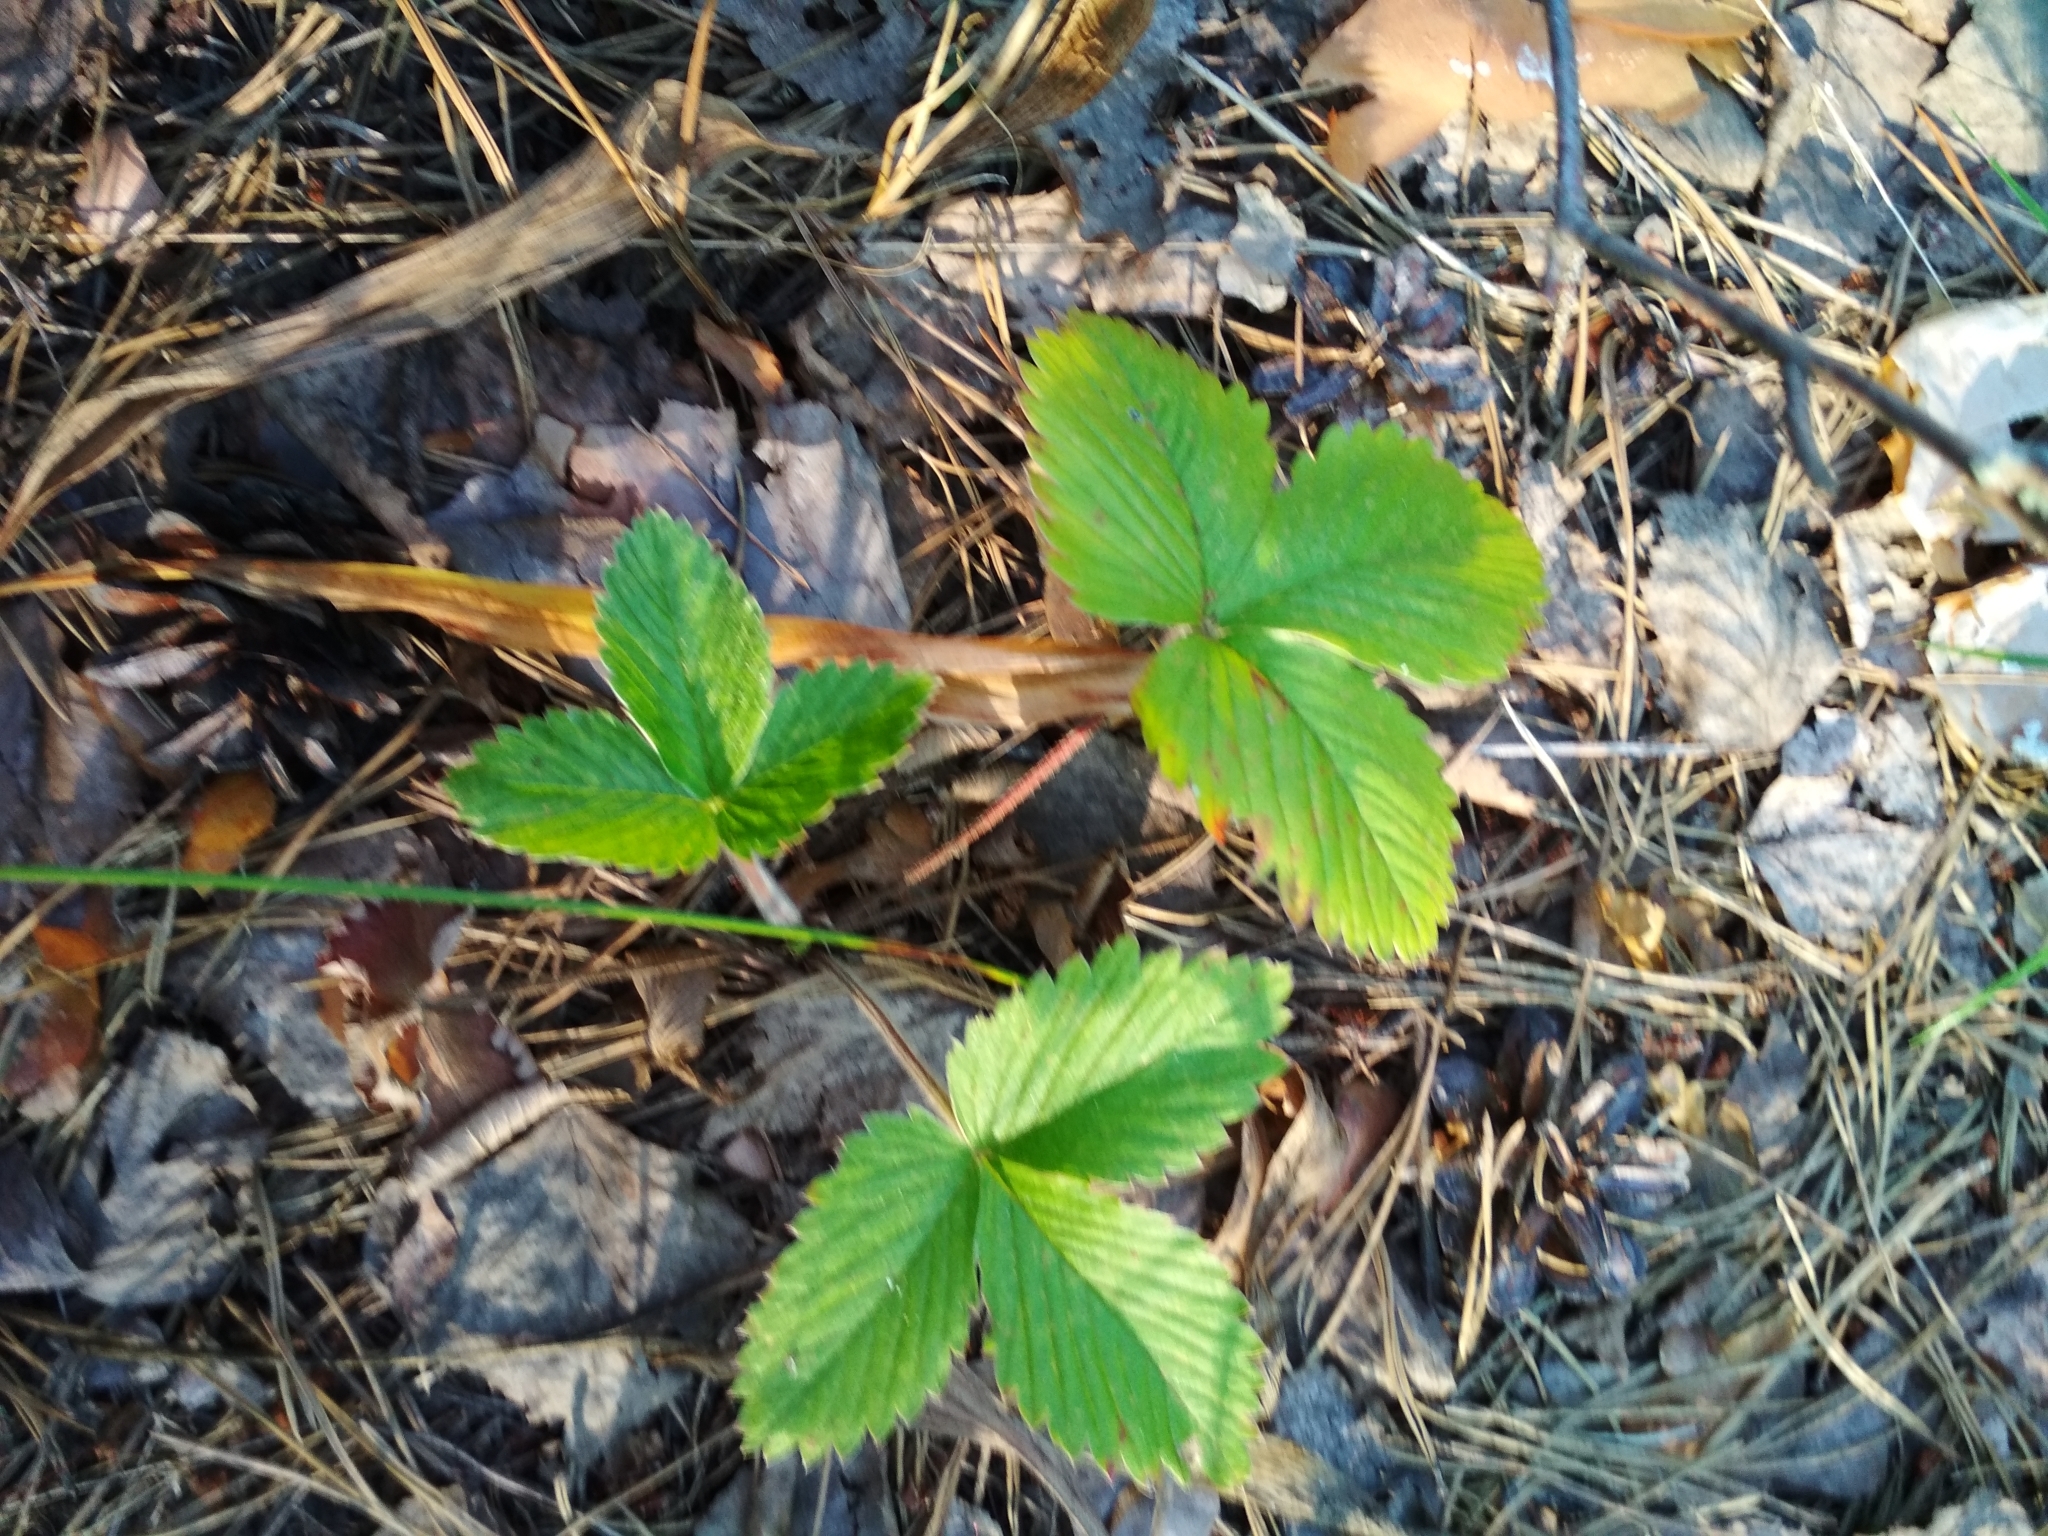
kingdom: Plantae
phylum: Tracheophyta
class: Magnoliopsida
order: Rosales
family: Rosaceae
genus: Fragaria
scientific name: Fragaria vesca
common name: Wild strawberry
